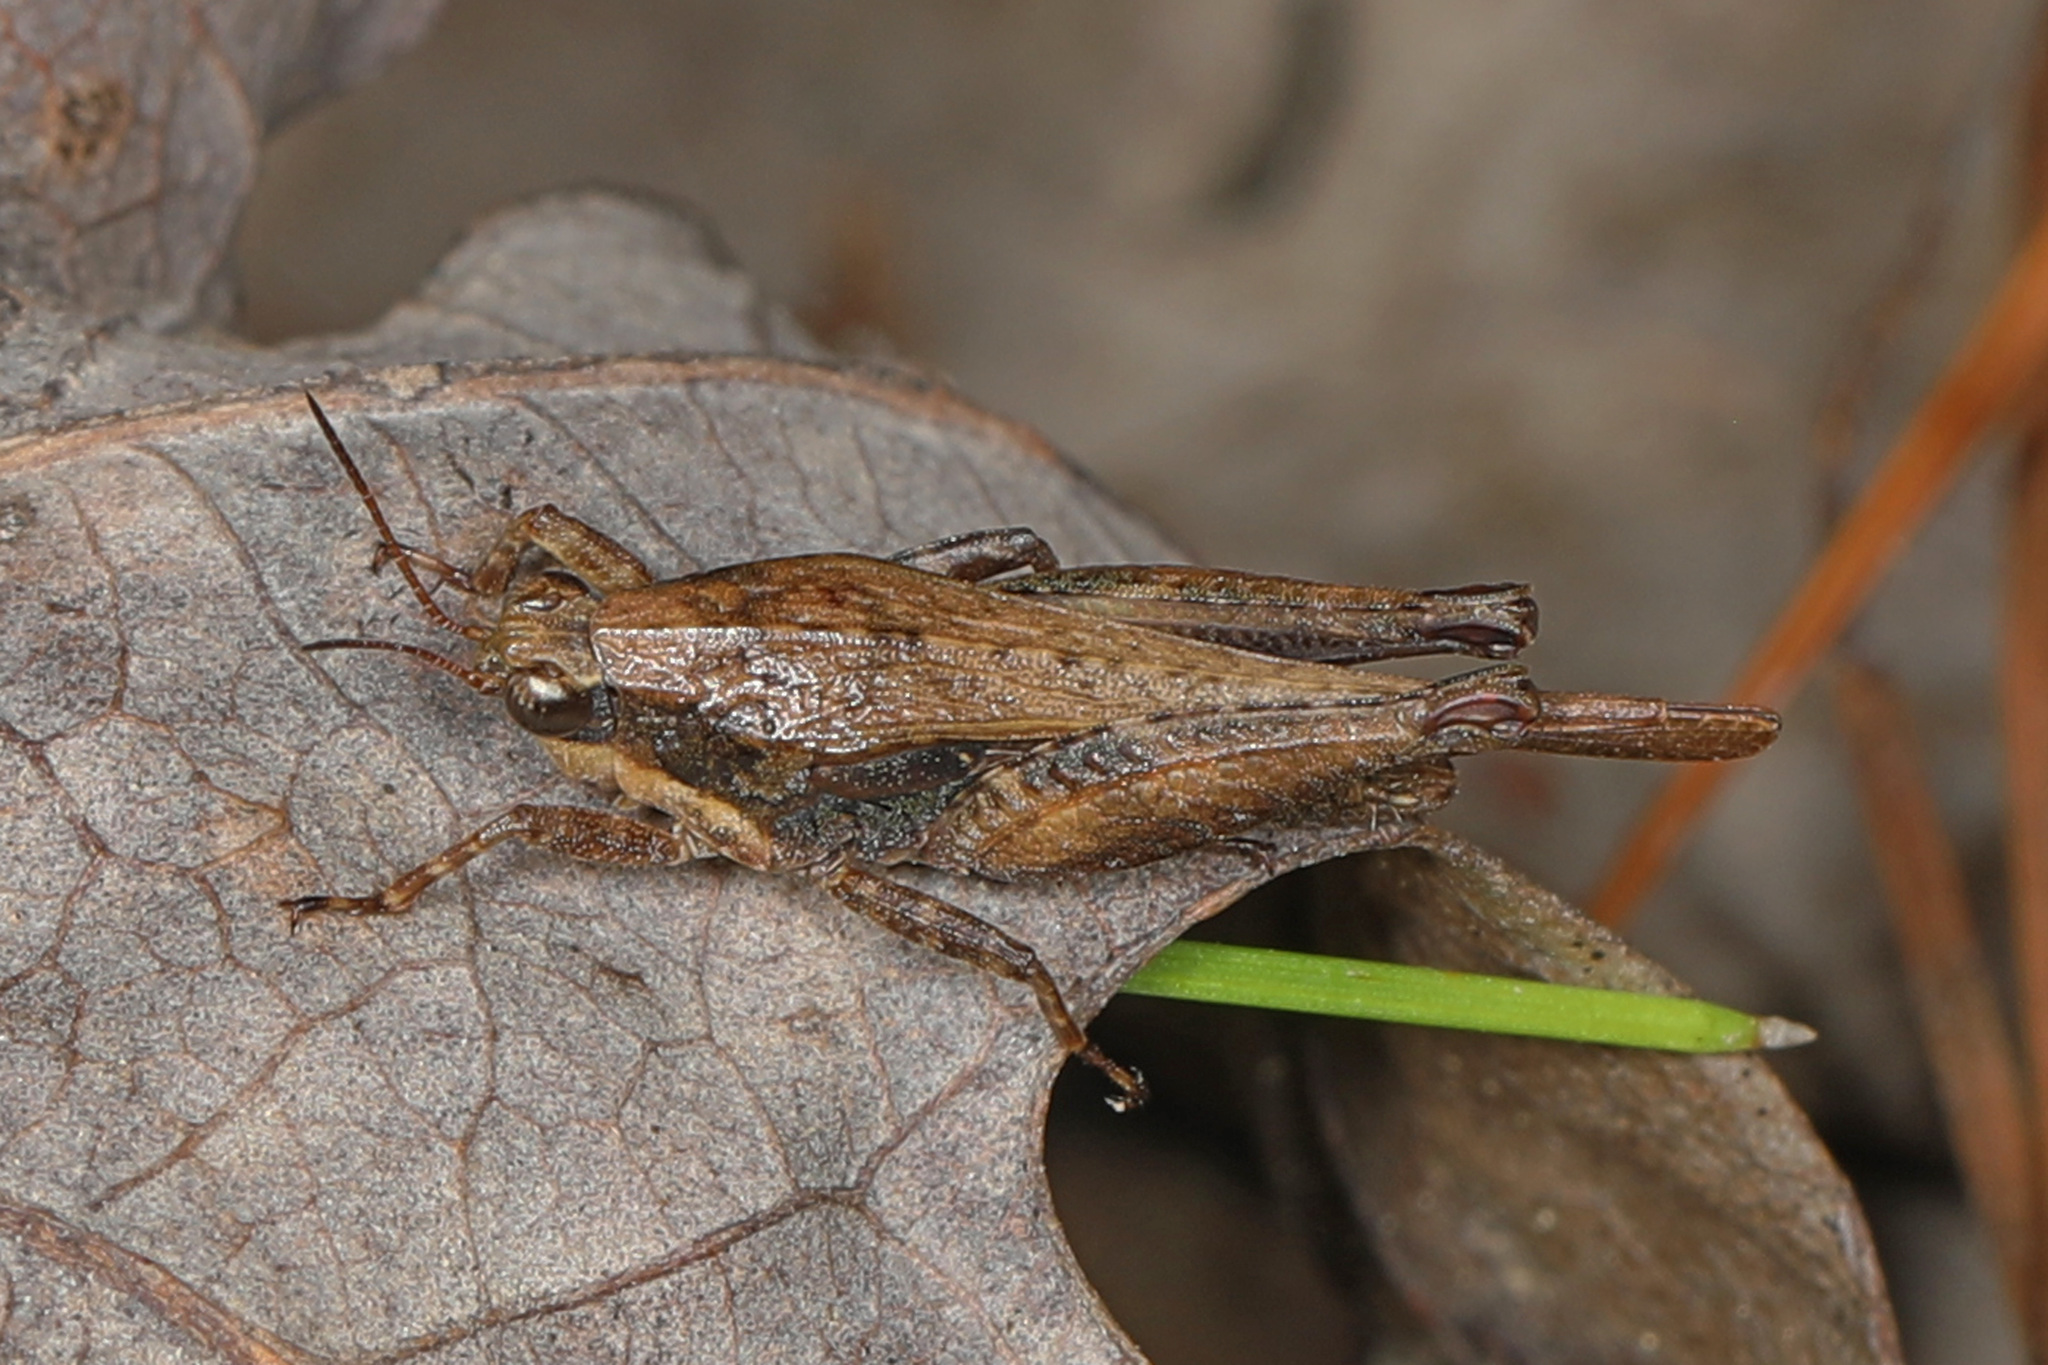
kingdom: Animalia
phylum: Arthropoda
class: Insecta
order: Orthoptera
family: Tetrigidae
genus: Tettigidea
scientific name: Tettigidea laterale
